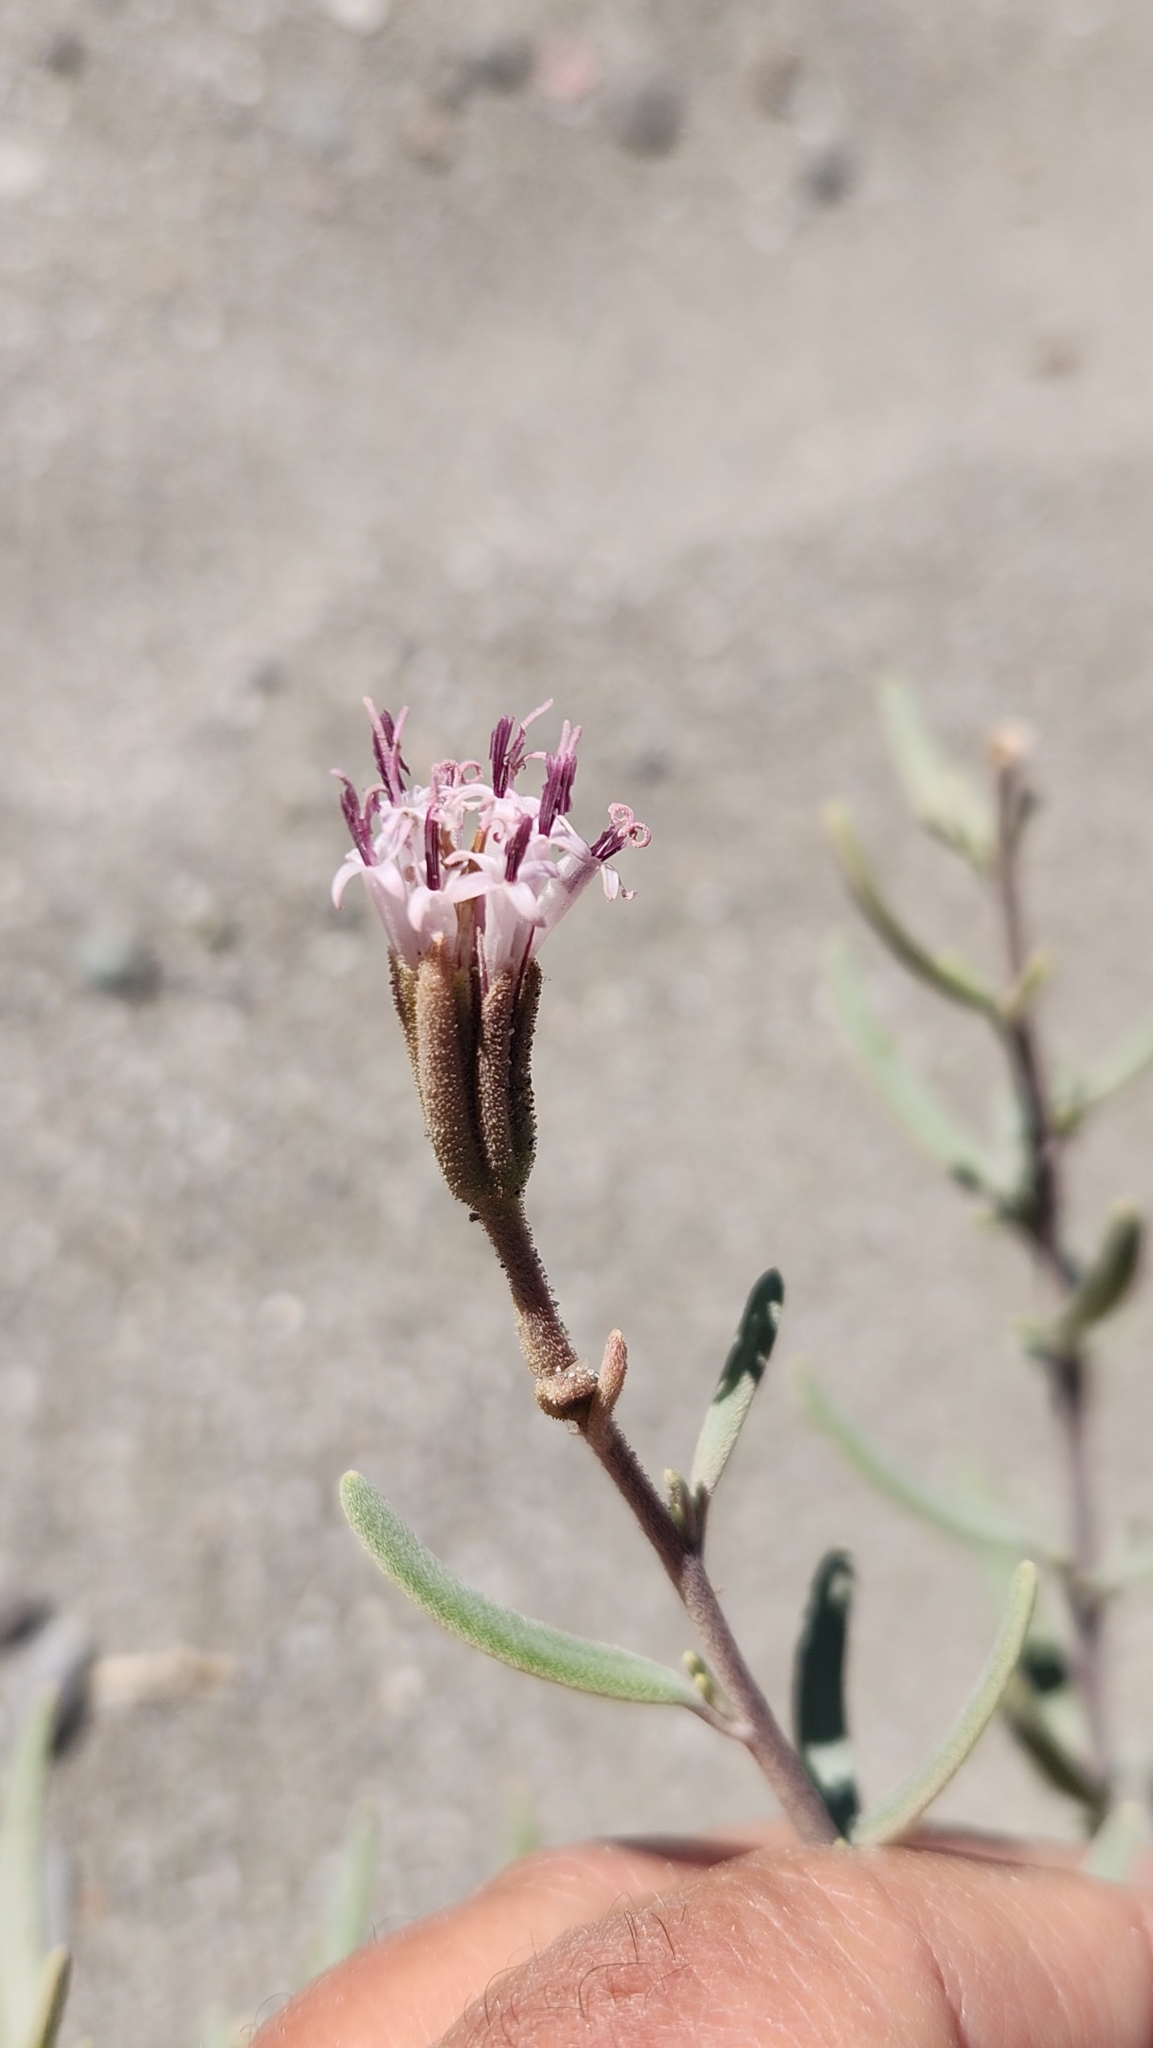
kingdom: Plantae
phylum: Tracheophyta
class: Magnoliopsida
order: Asterales
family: Asteraceae
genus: Palafoxia
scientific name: Palafoxia linearis
